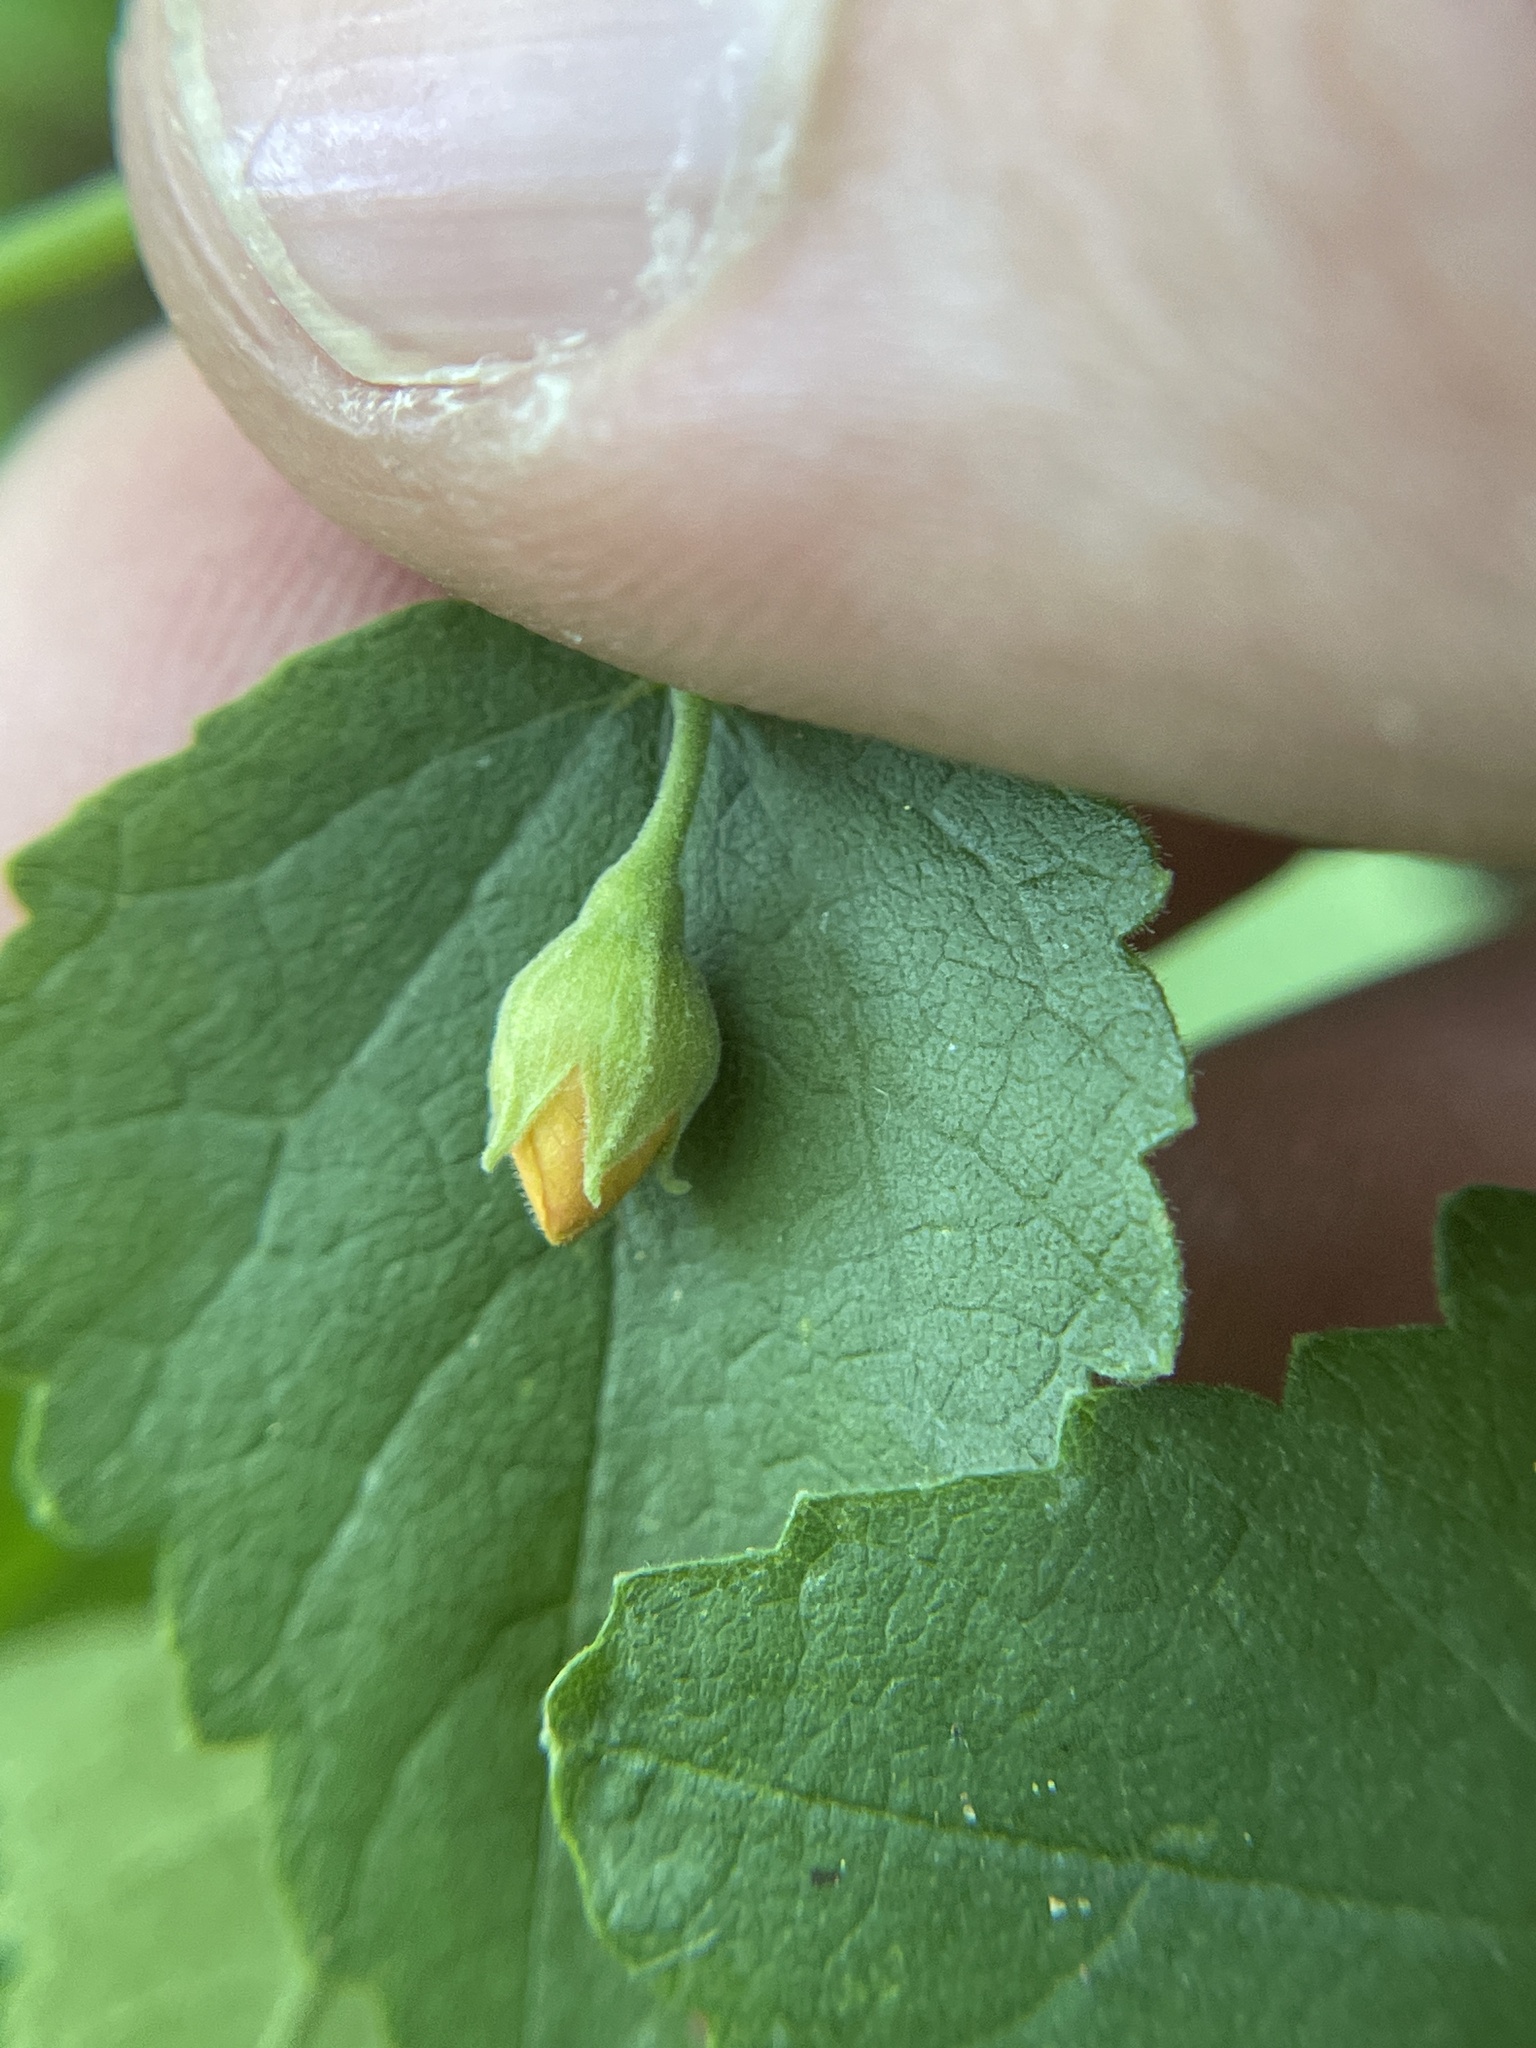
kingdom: Plantae
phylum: Tracheophyta
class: Magnoliopsida
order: Malvales
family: Malvaceae
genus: Abutilon
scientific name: Abutilon fruticosum
